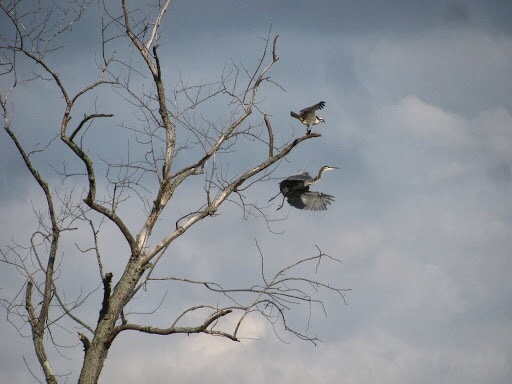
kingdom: Animalia
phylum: Chordata
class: Aves
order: Accipitriformes
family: Pandionidae
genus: Pandion
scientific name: Pandion haliaetus
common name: Osprey
